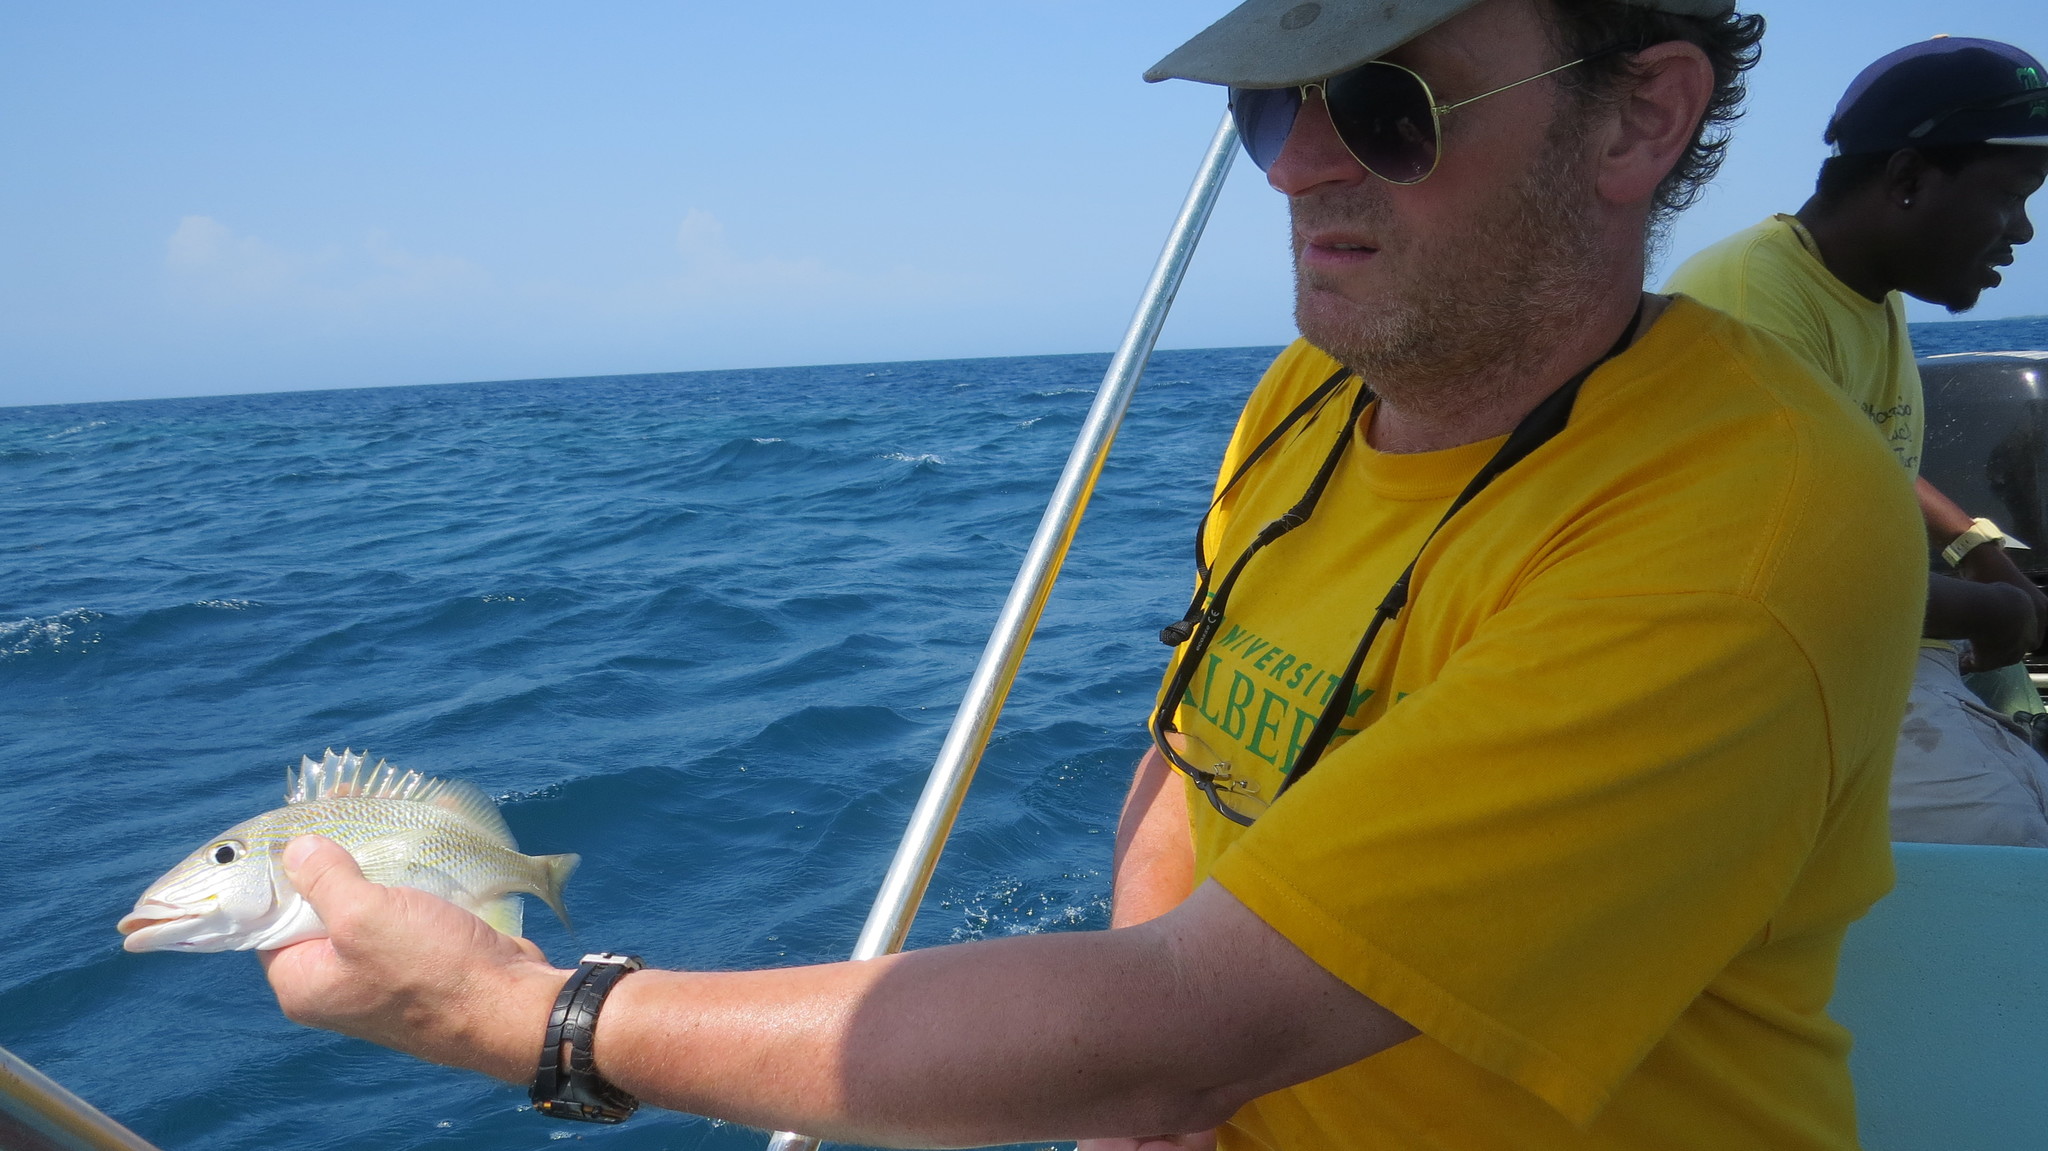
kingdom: Animalia
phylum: Chordata
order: Perciformes
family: Haemulidae
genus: Haemulon
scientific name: Haemulon plumierii
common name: White grunt
